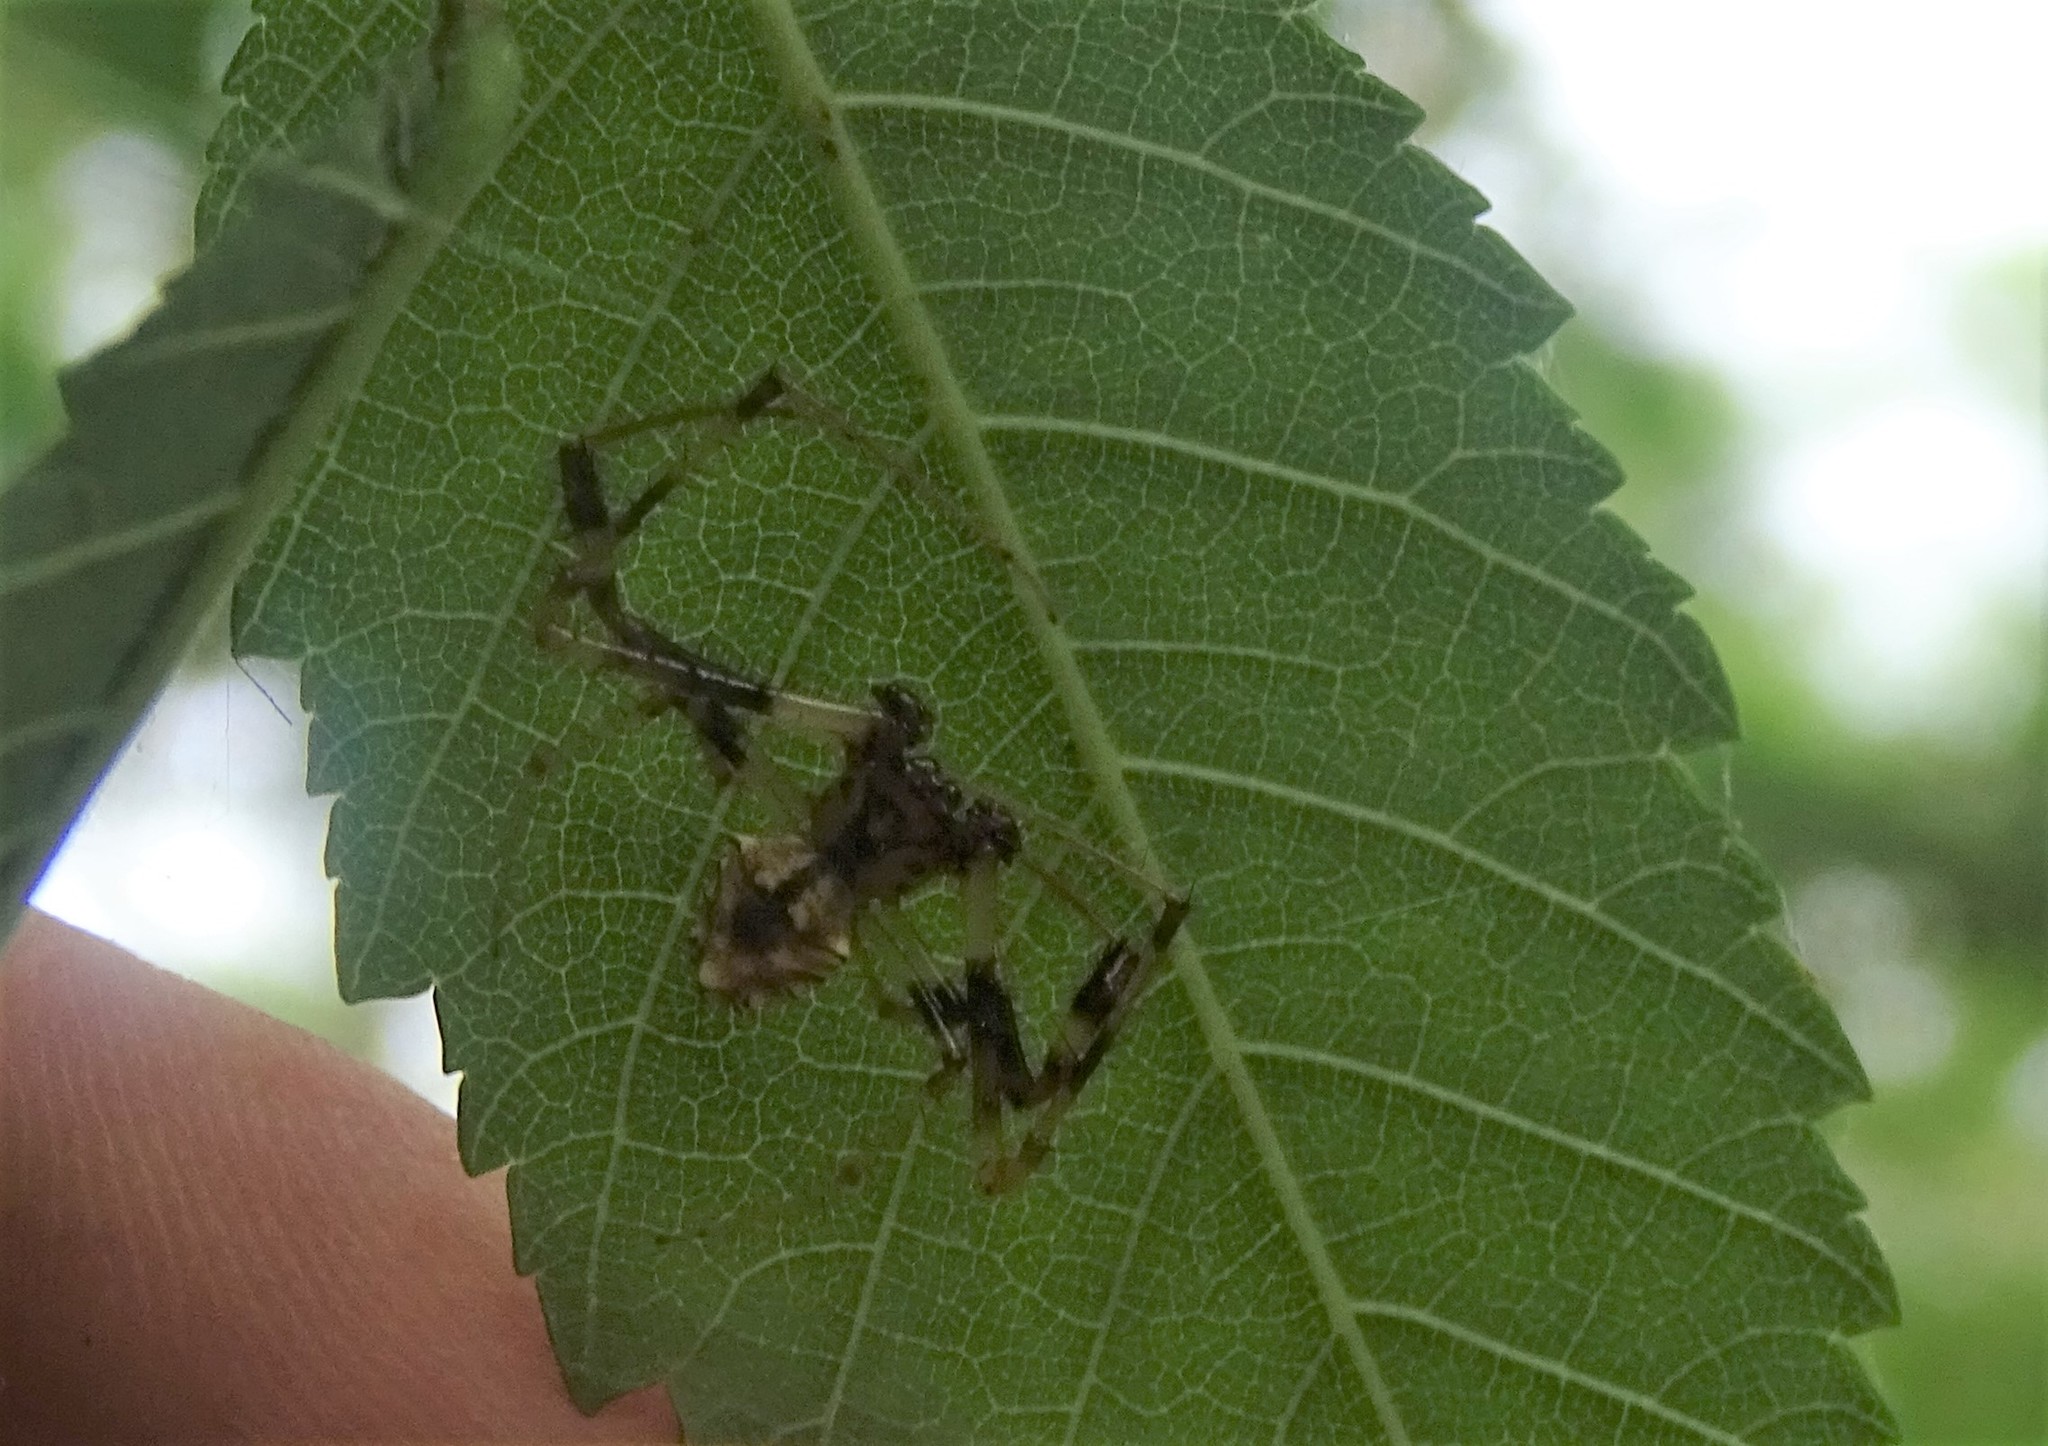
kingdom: Animalia
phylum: Arthropoda
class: Arachnida
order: Araneae
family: Araneidae
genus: Verrucosa
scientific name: Verrucosa arenata
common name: Orb weavers
